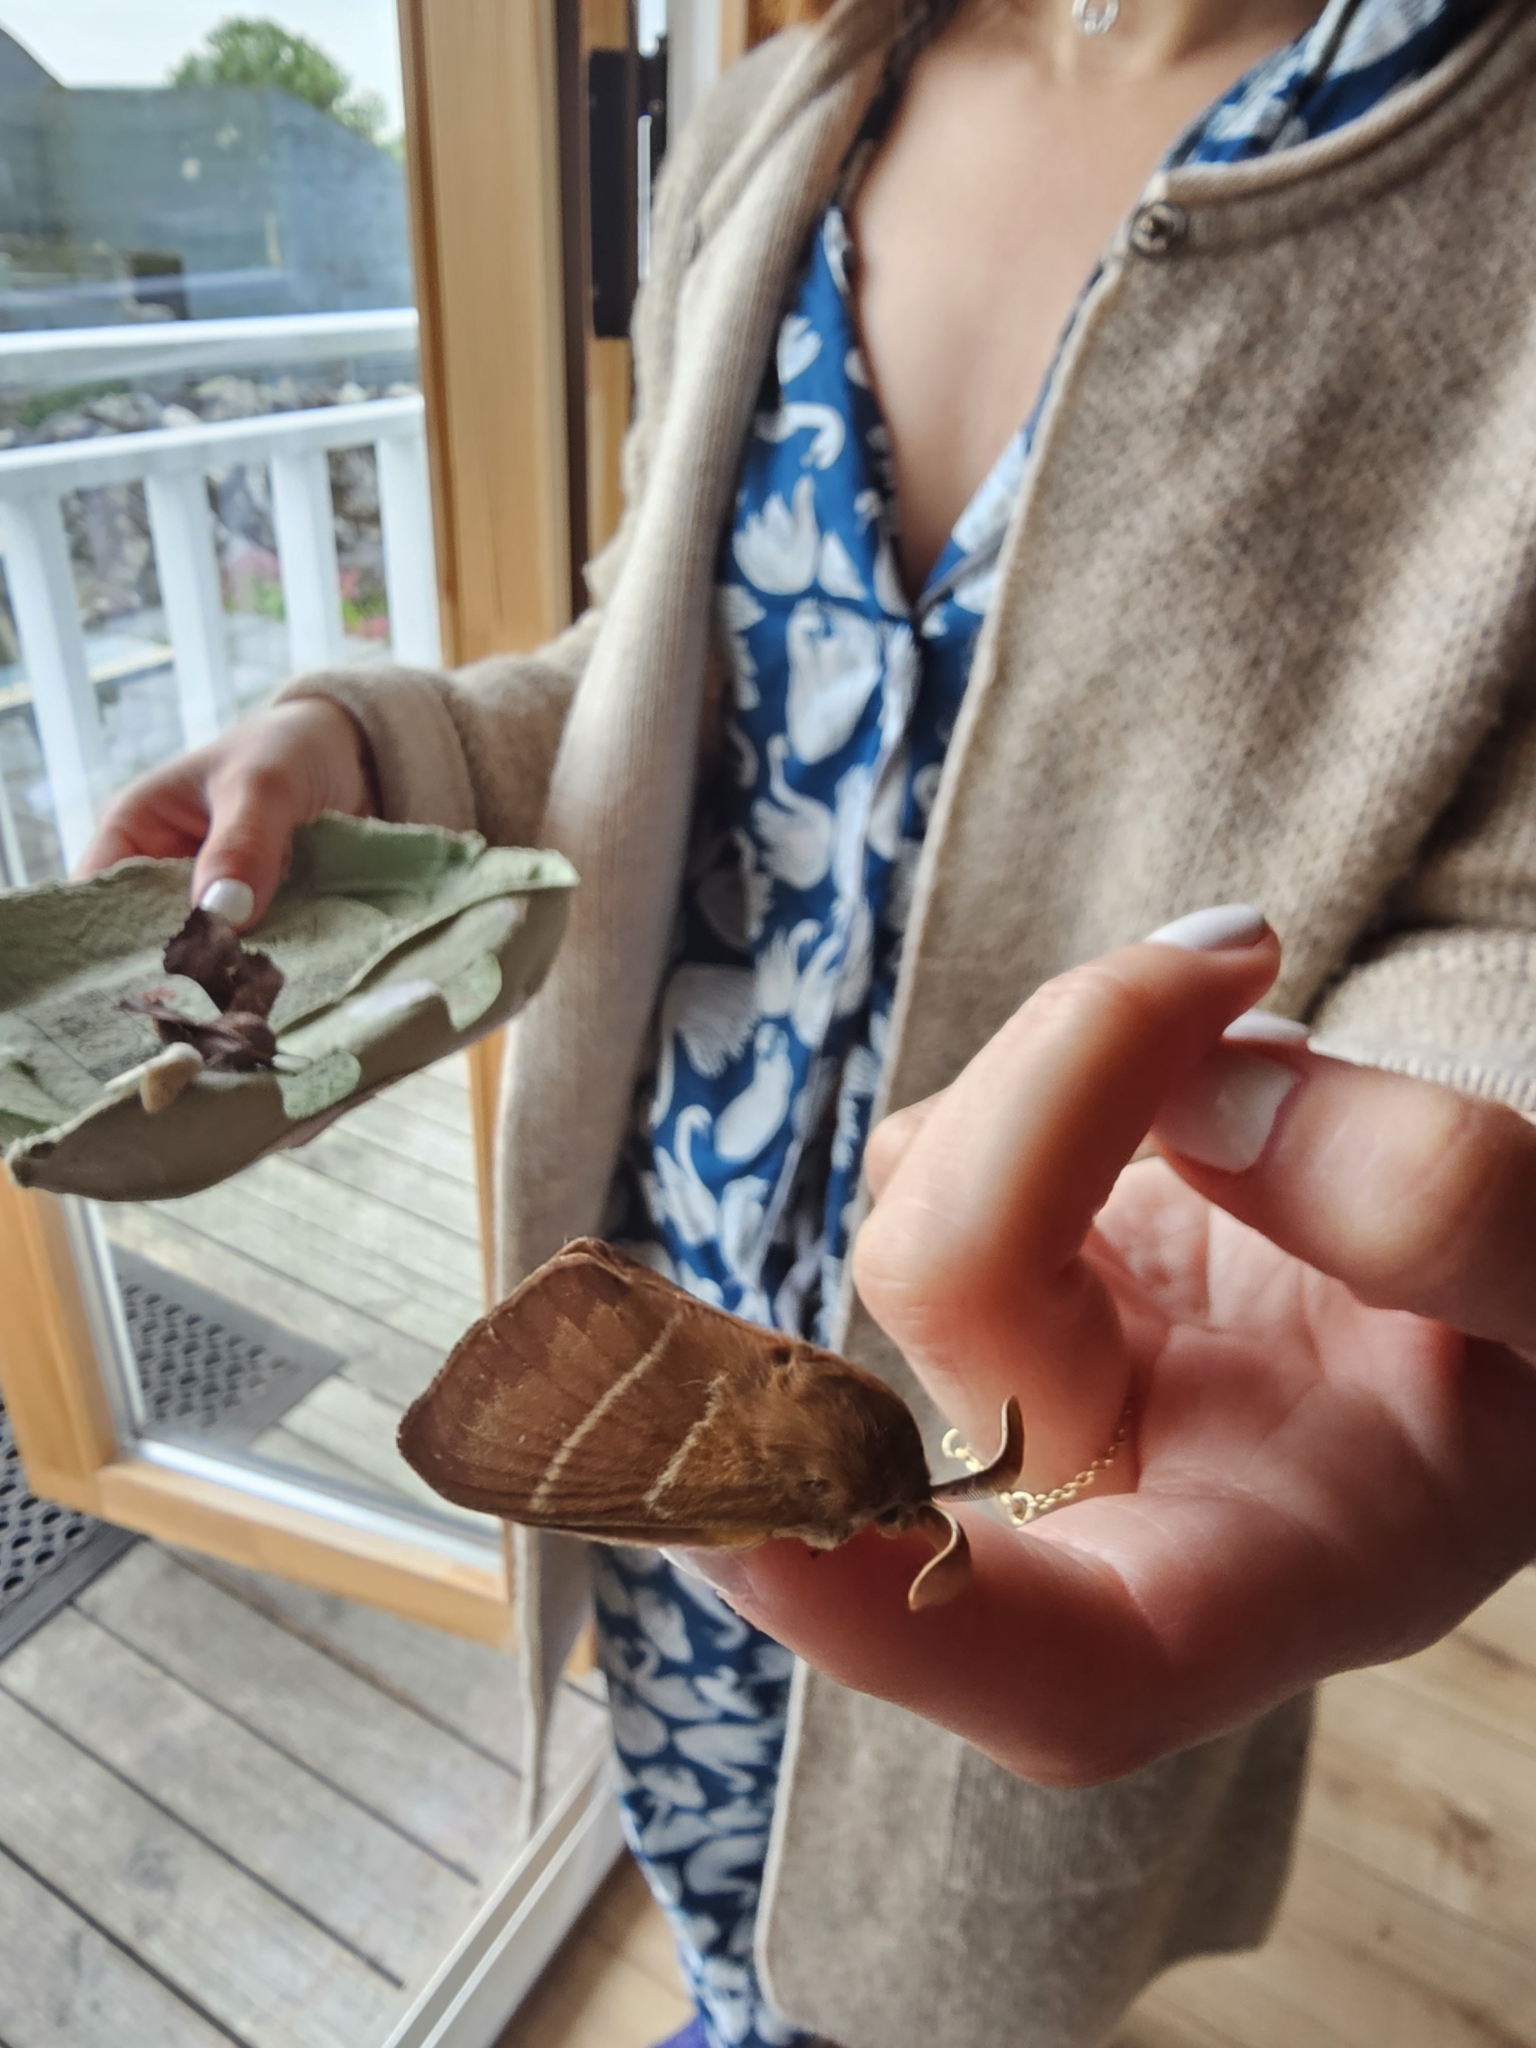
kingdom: Animalia
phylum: Arthropoda
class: Insecta
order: Lepidoptera
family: Lasiocampidae
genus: Macrothylacia
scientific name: Macrothylacia rubi
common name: Fox moth
